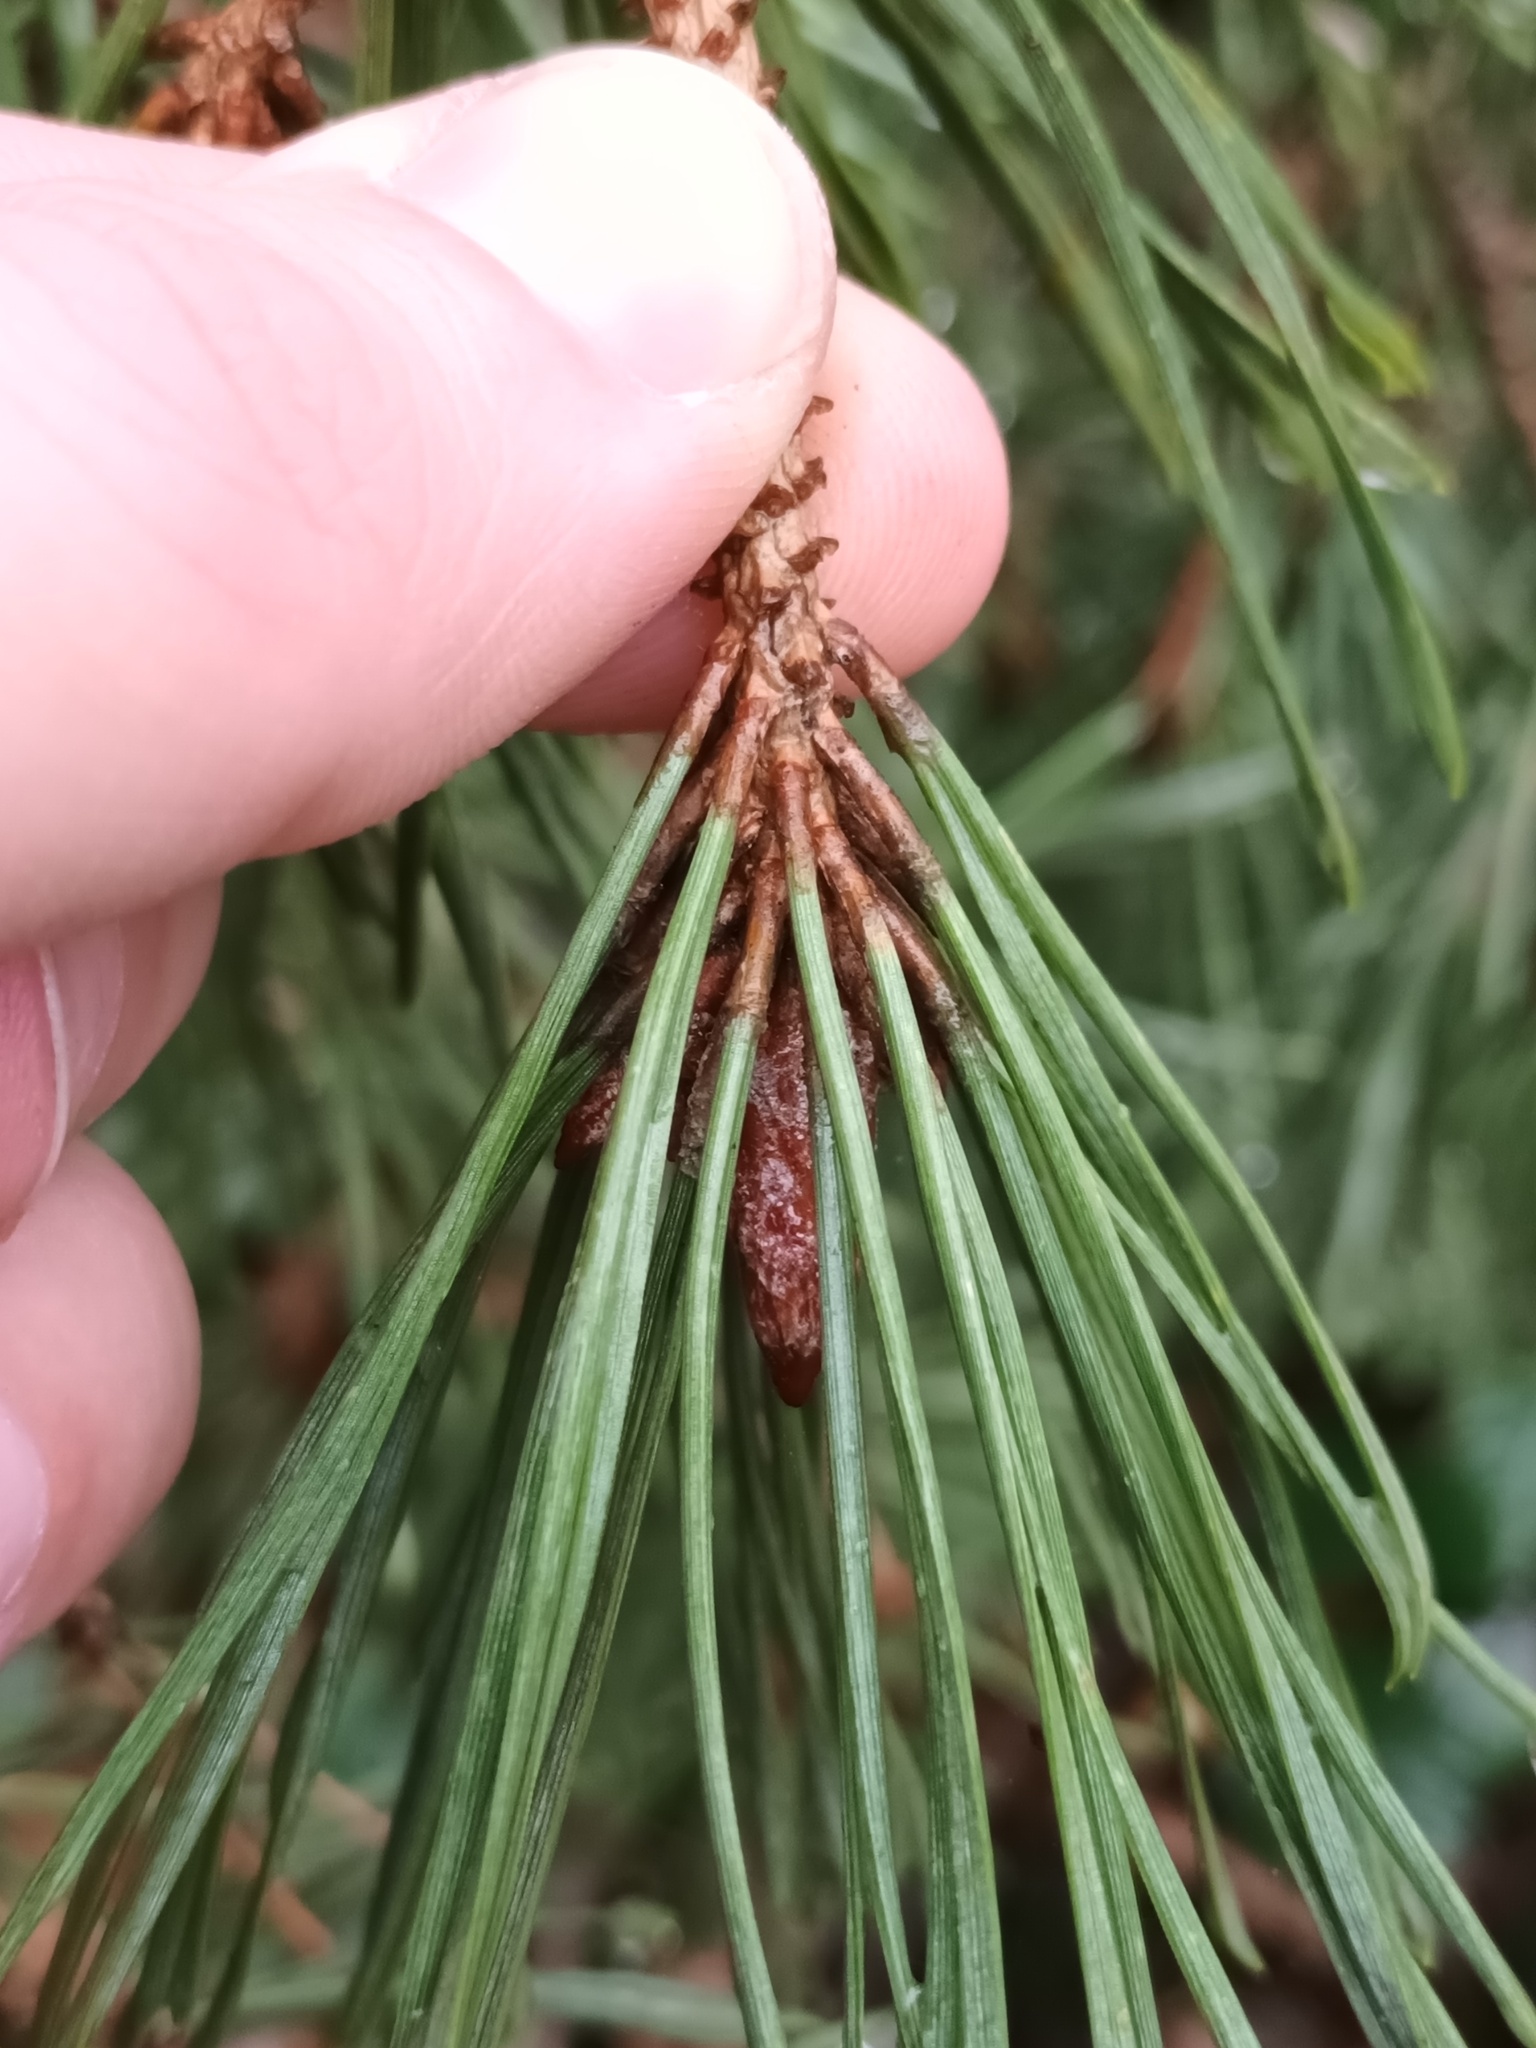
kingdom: Plantae
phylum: Tracheophyta
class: Pinopsida
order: Pinales
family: Pinaceae
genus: Pinus
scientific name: Pinus sylvestris
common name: Scots pine
